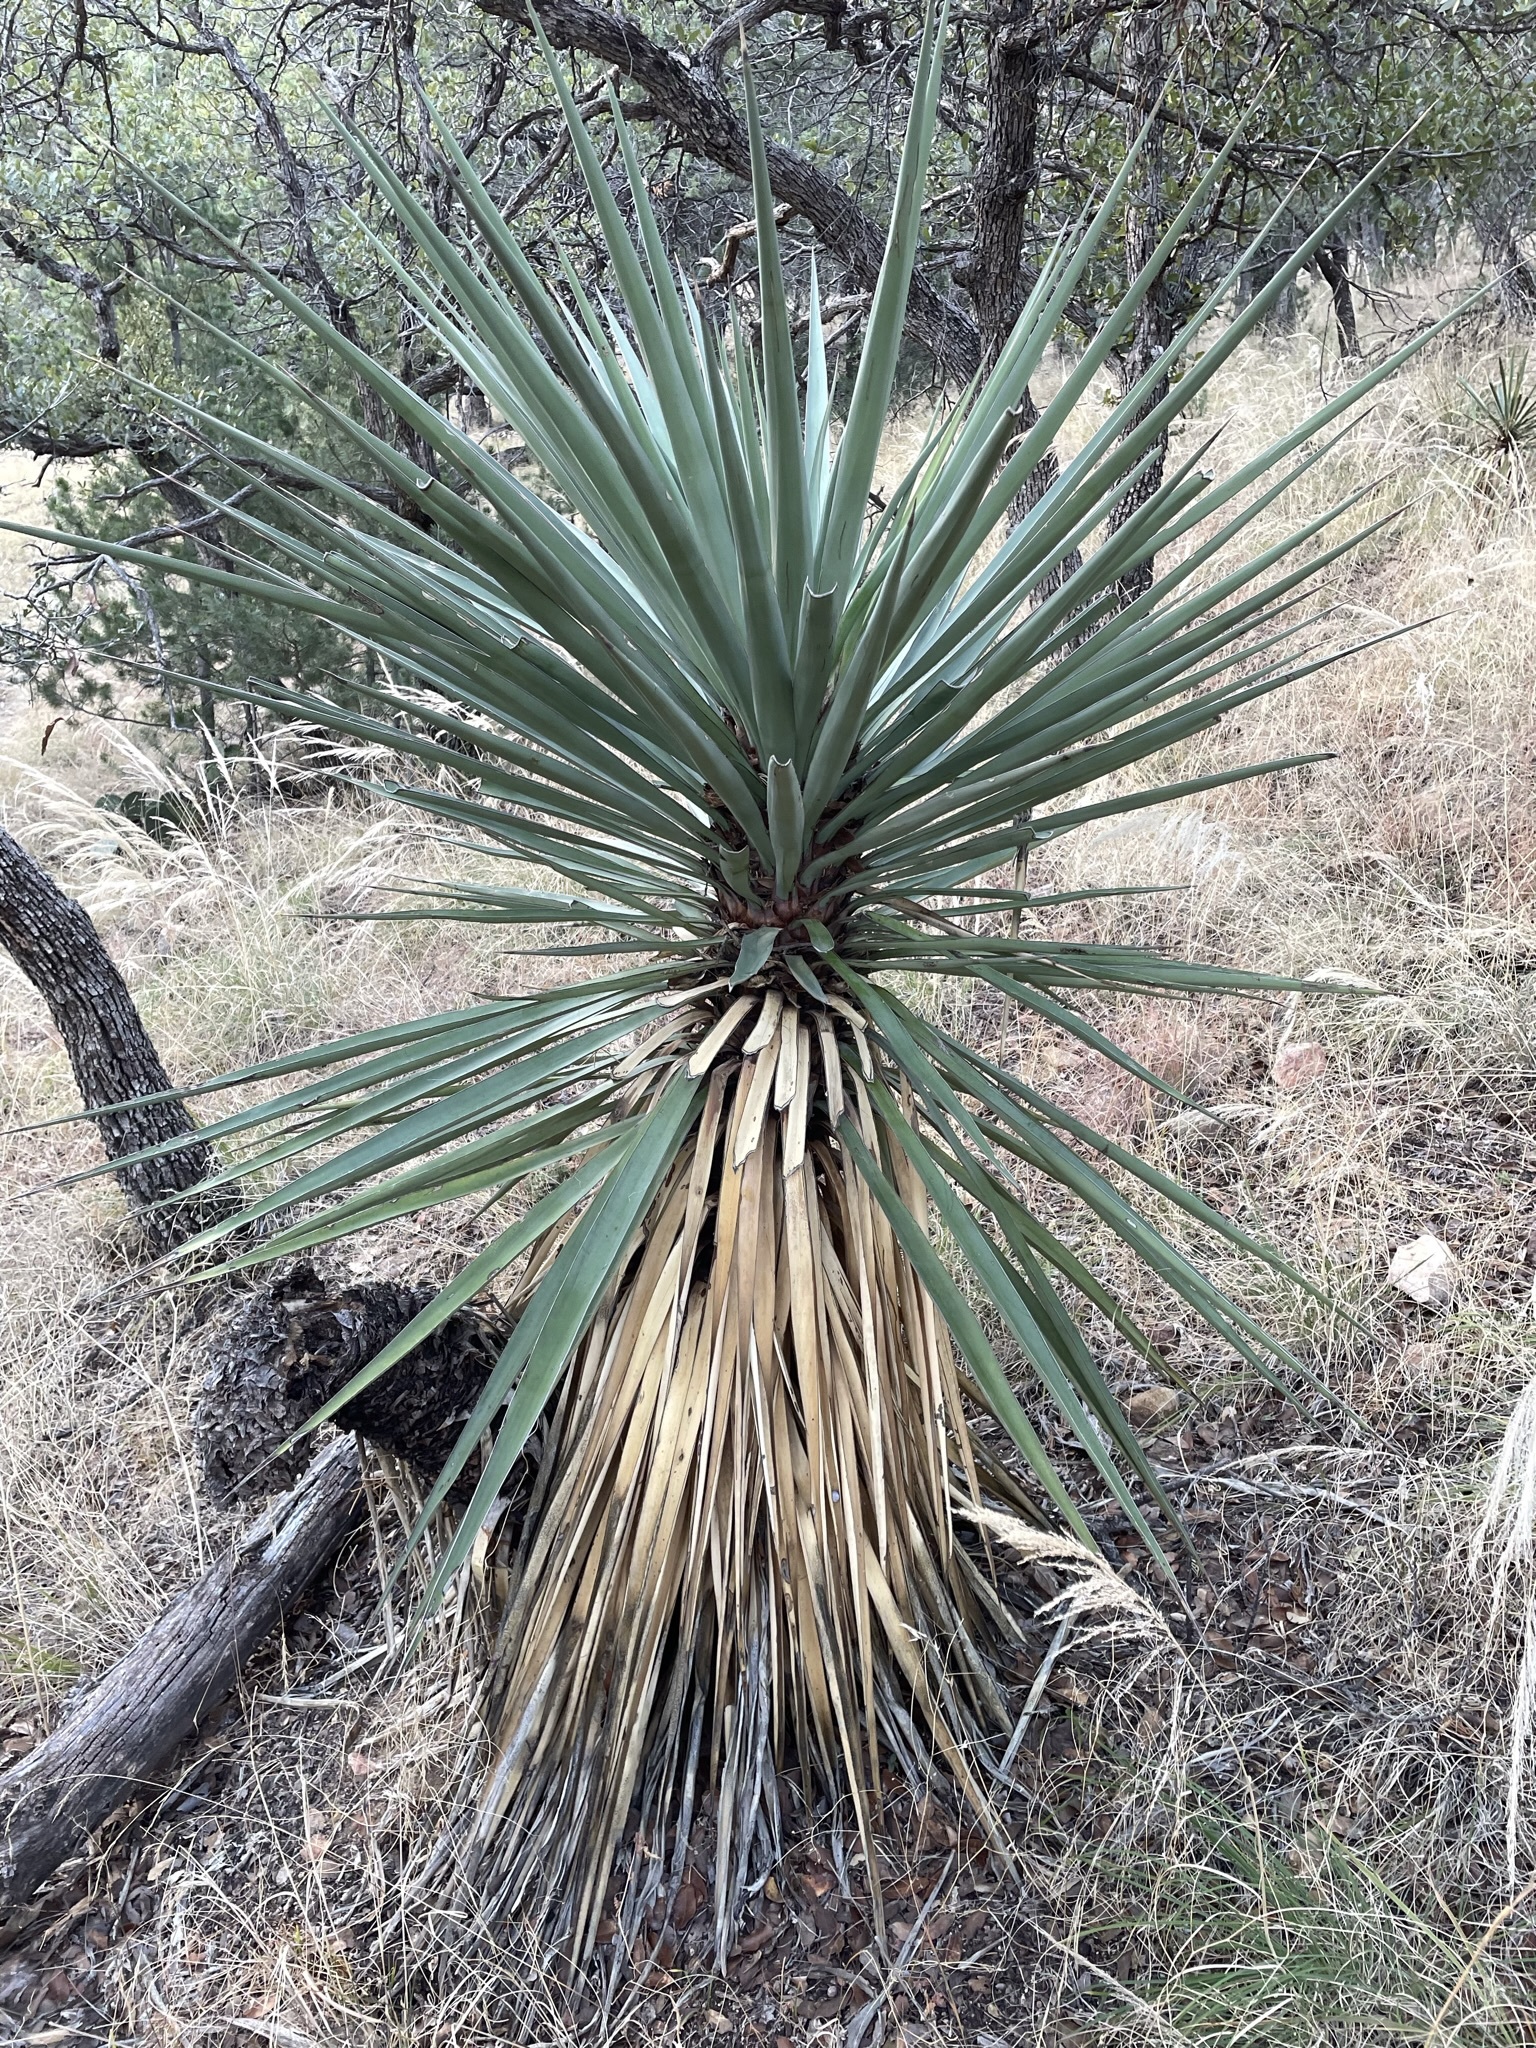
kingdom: Plantae
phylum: Tracheophyta
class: Liliopsida
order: Asparagales
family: Asparagaceae
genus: Yucca
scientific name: Yucca madrensis
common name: Hoary yucca
